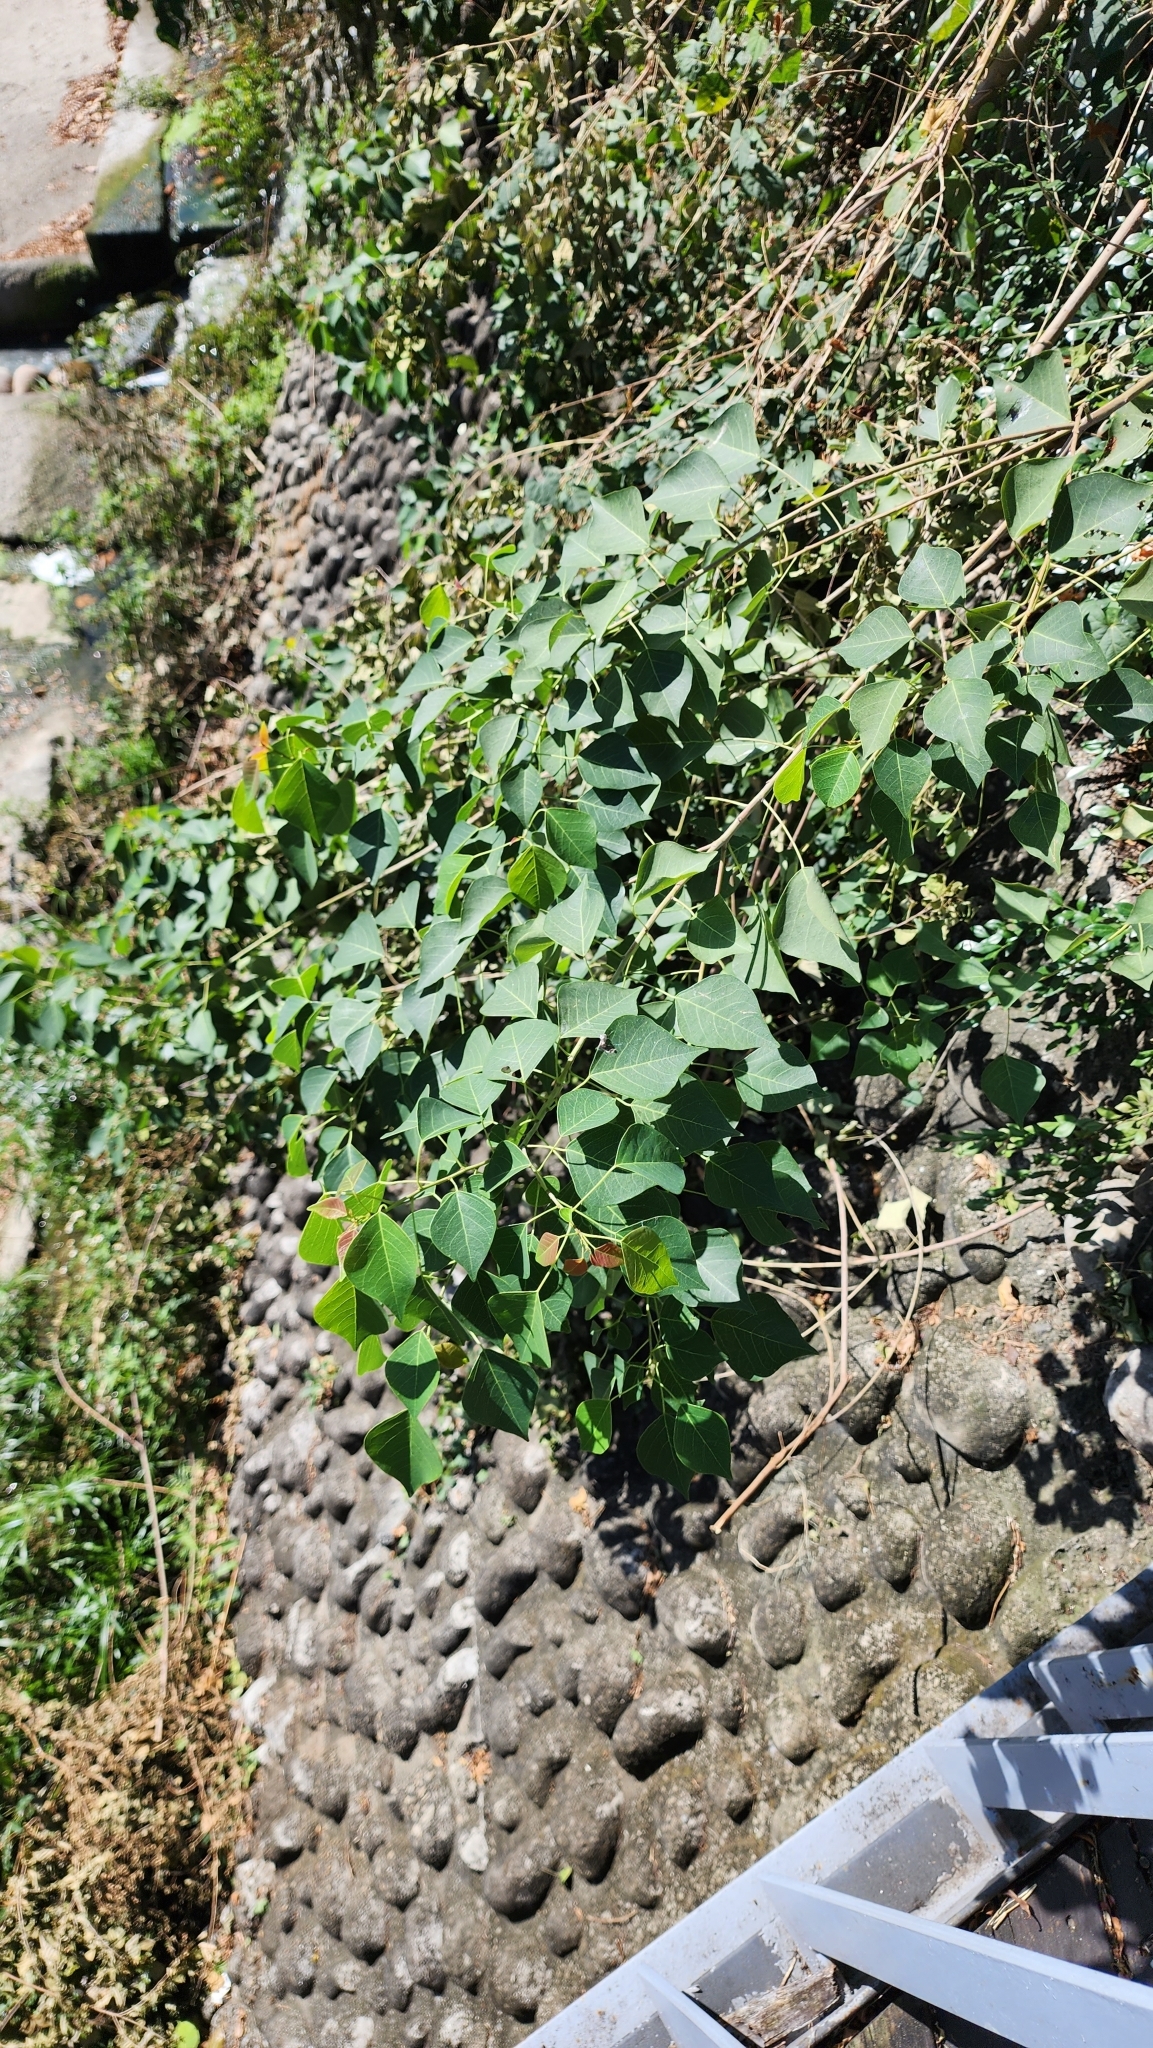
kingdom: Plantae
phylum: Tracheophyta
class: Magnoliopsida
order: Malpighiales
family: Euphorbiaceae
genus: Triadica
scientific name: Triadica sebifera
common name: Chinese tallow
